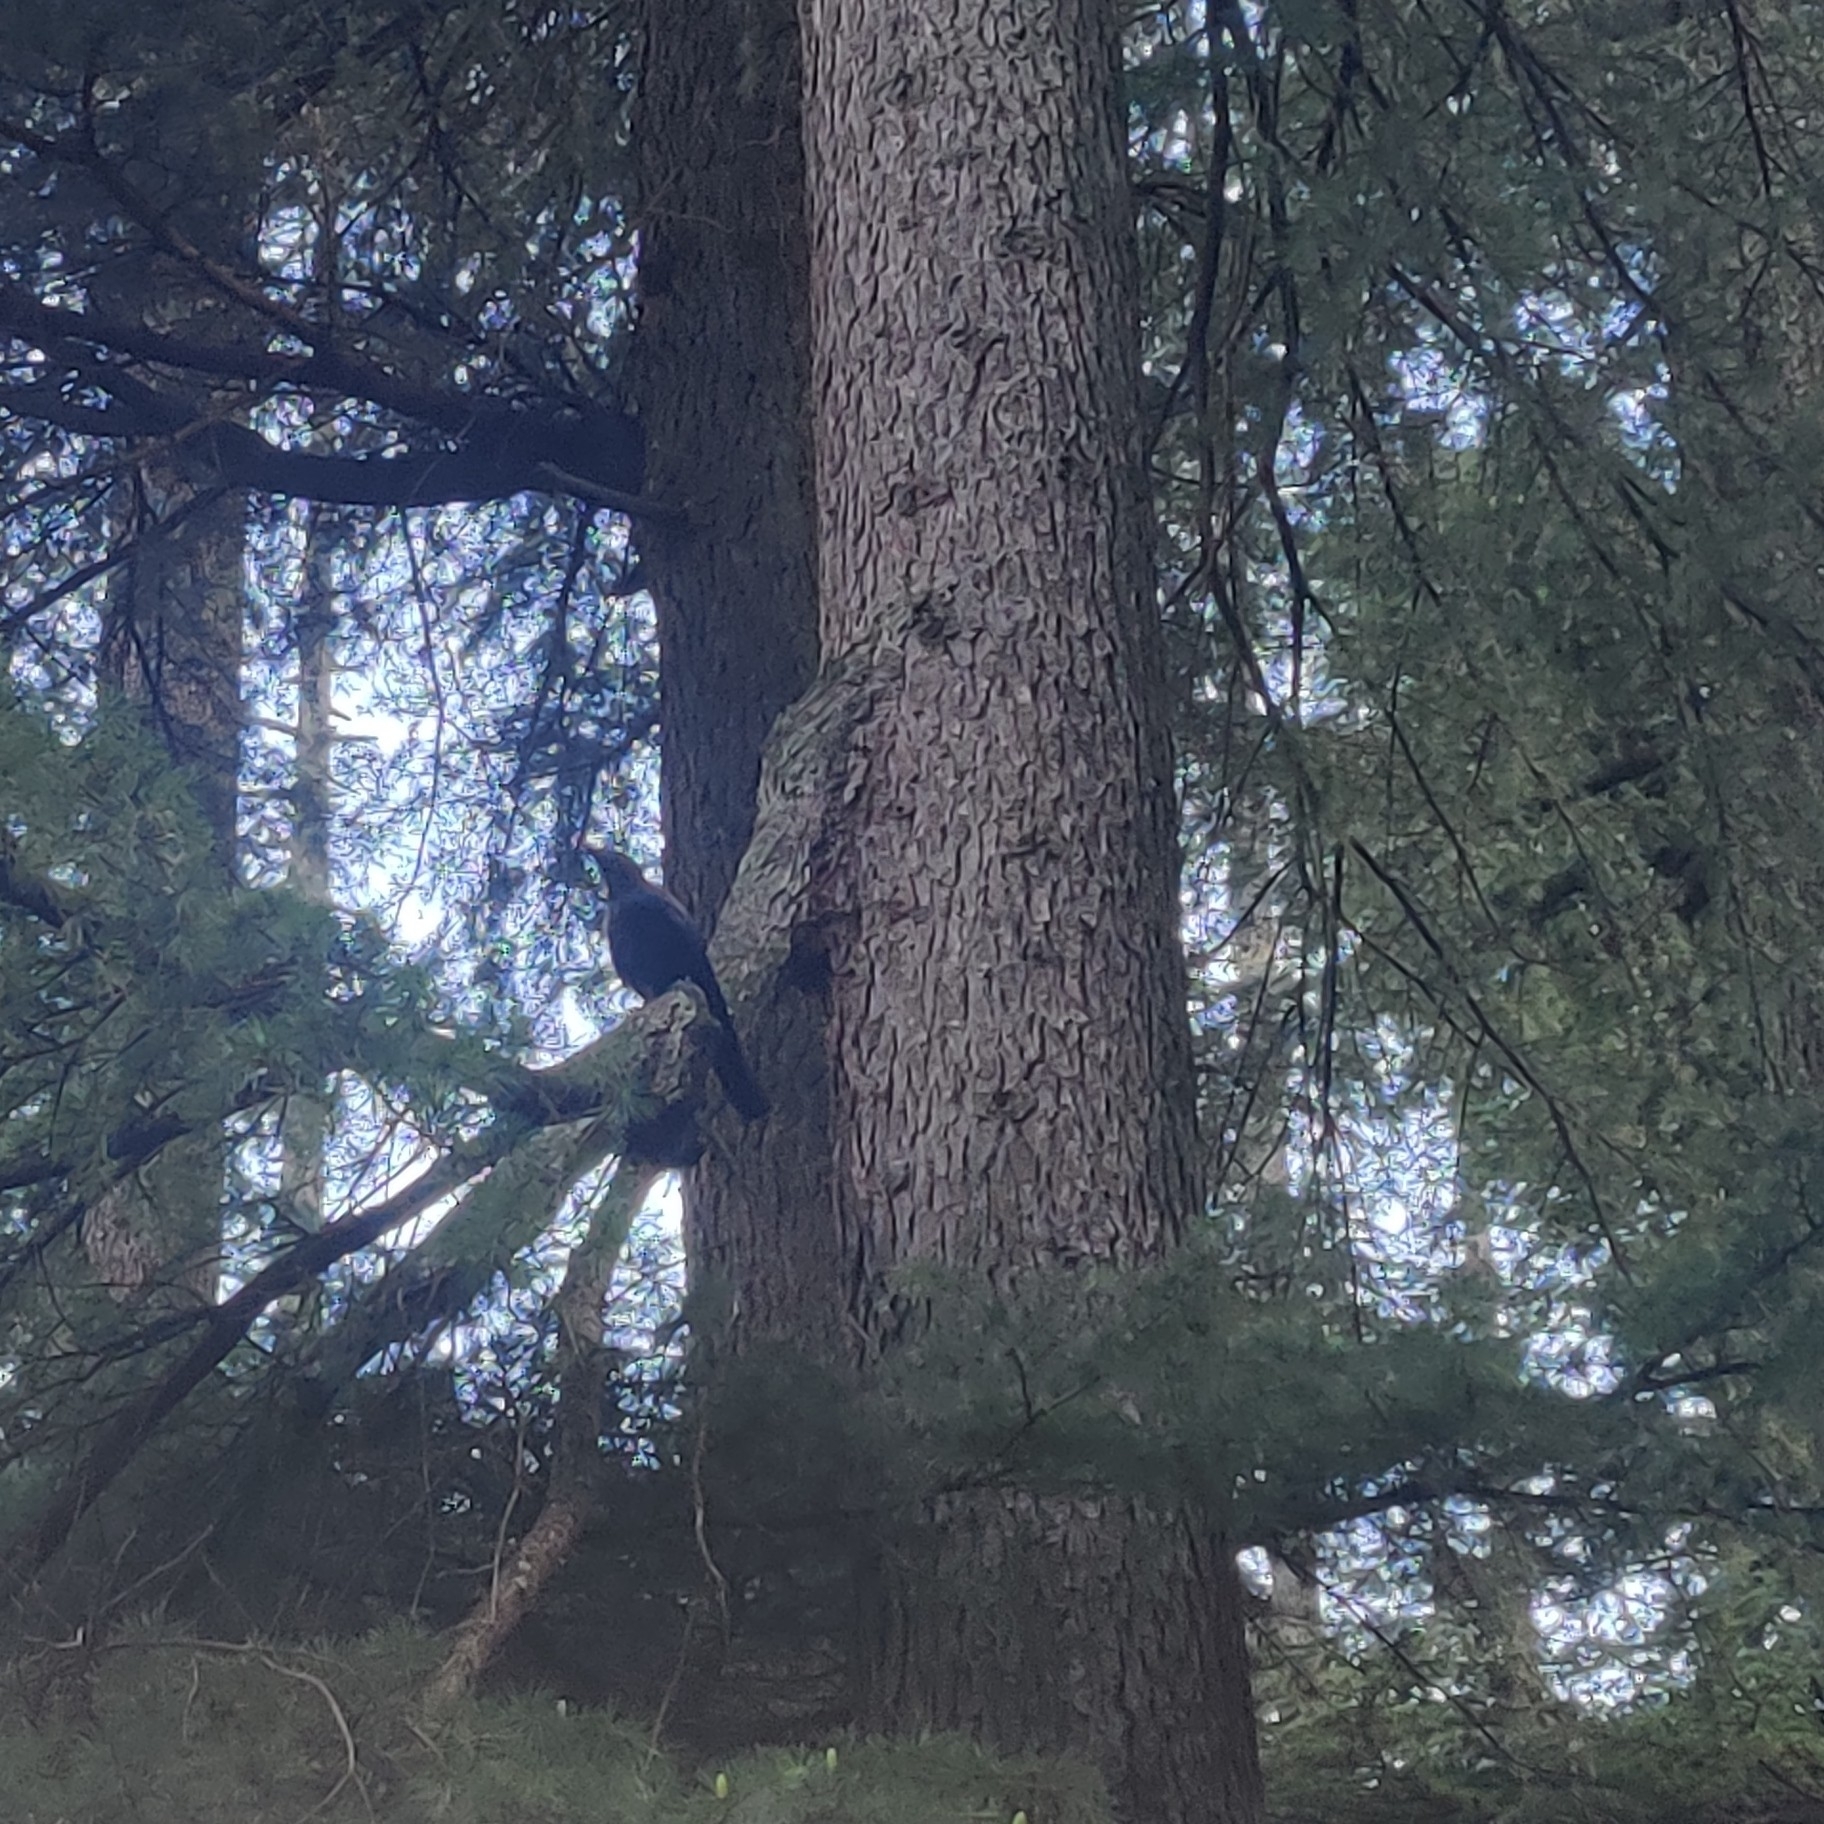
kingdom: Animalia
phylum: Chordata
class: Aves
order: Passeriformes
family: Corvidae
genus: Corvus
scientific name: Corvus macrorhynchos
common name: Large-billed crow
